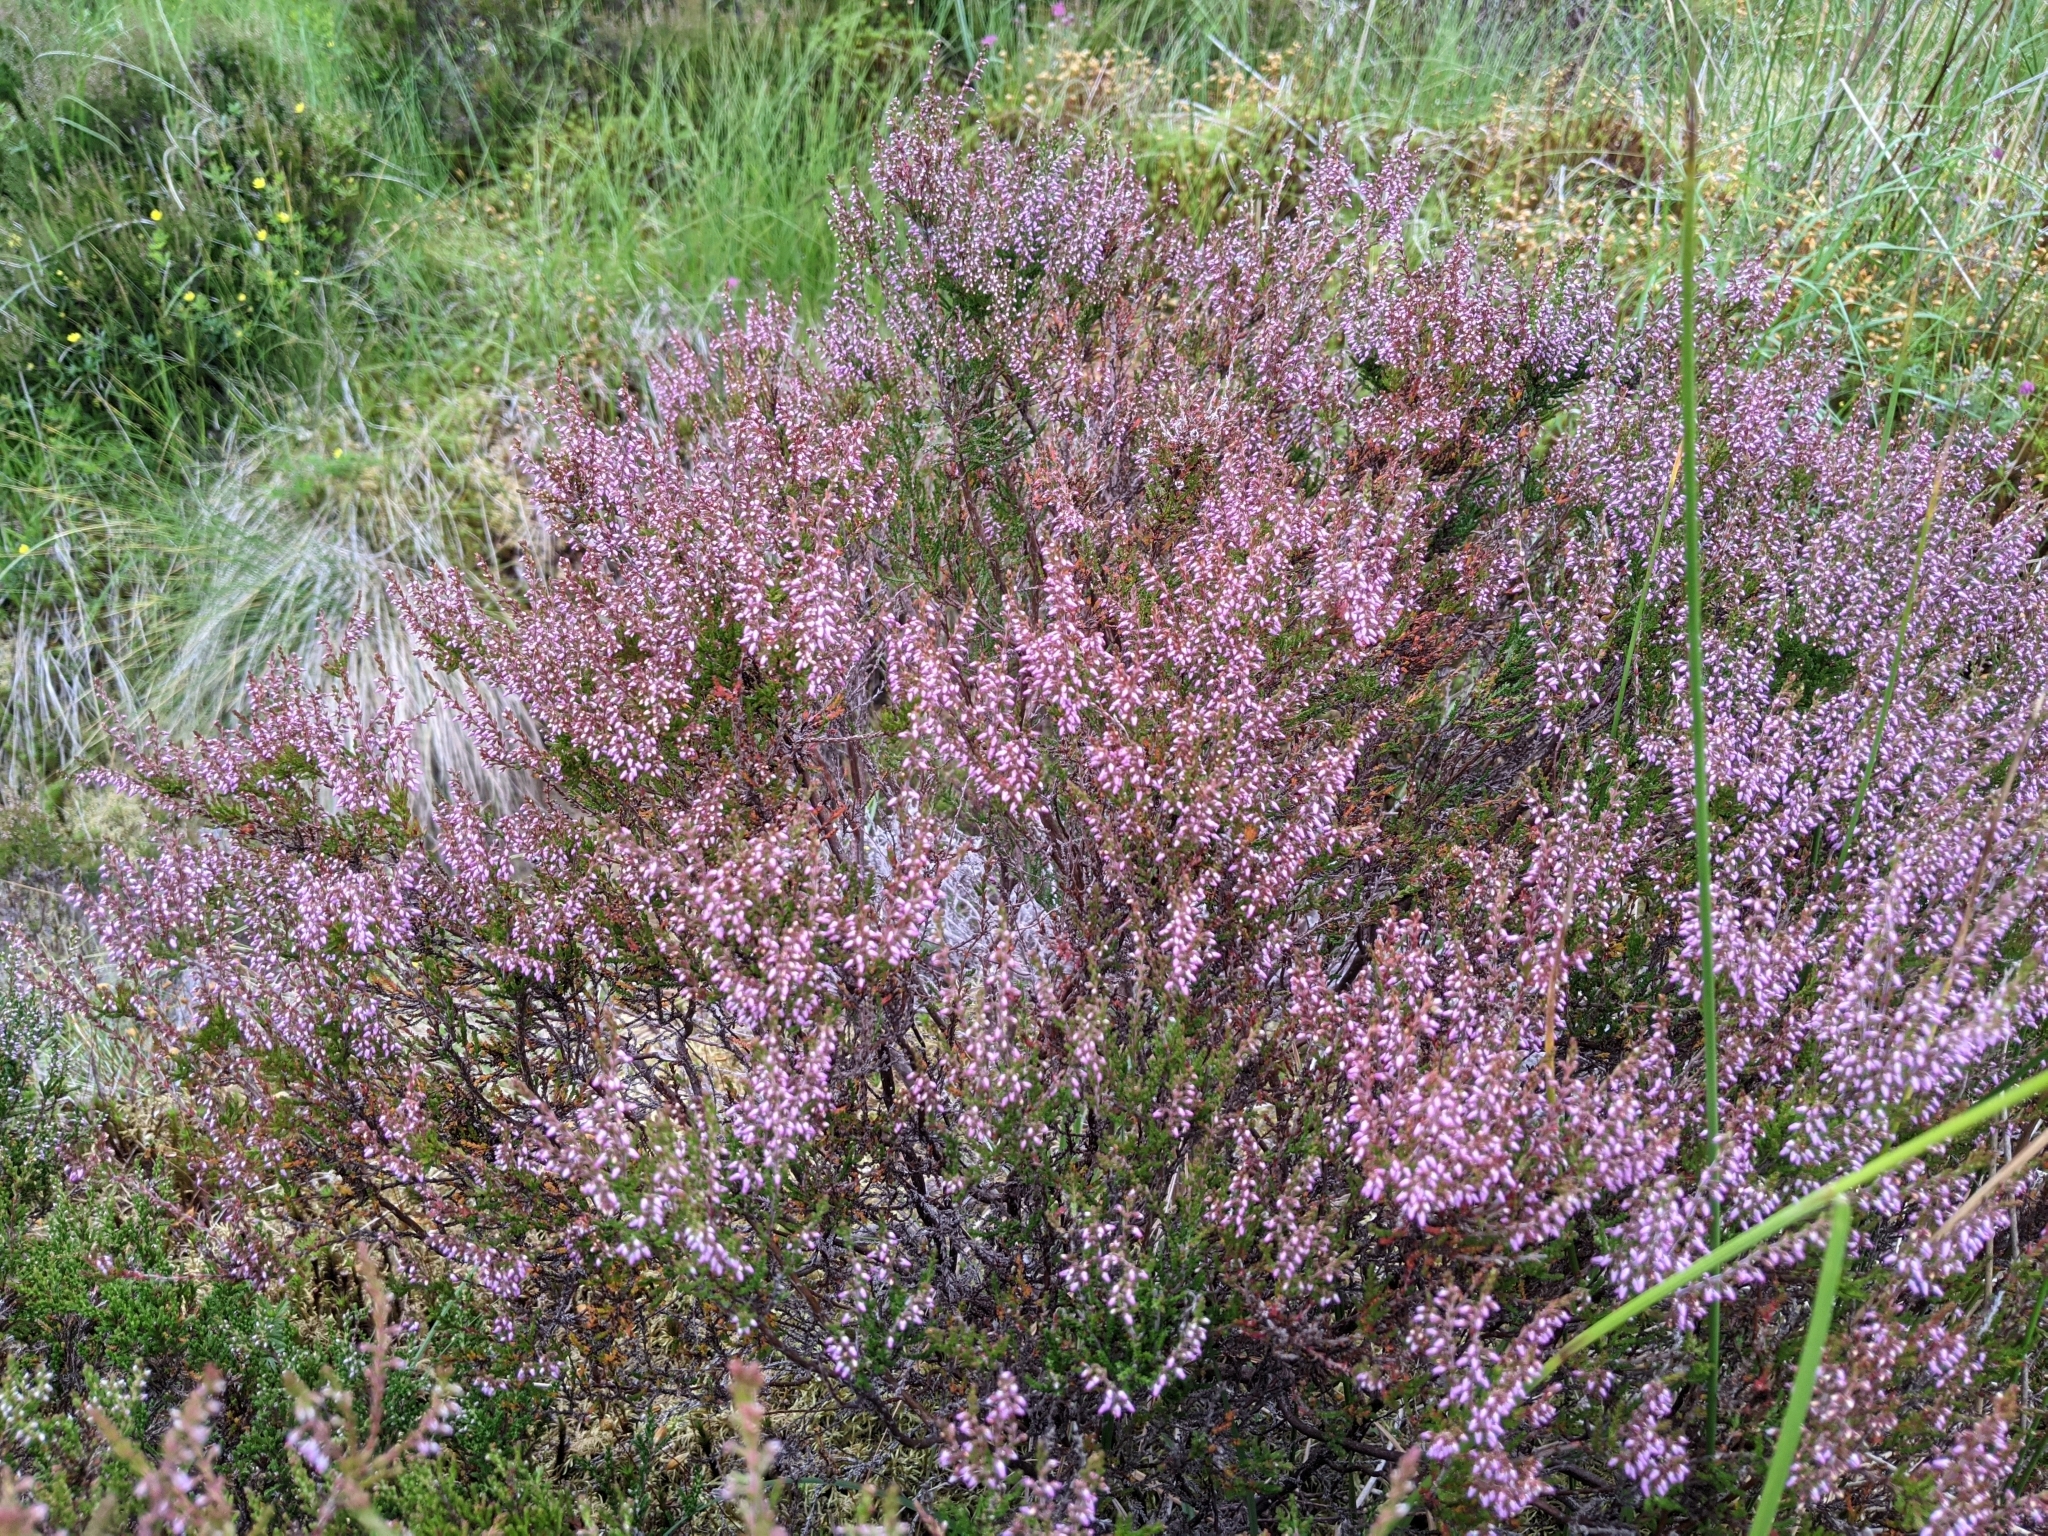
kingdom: Plantae
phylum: Tracheophyta
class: Magnoliopsida
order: Ericales
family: Ericaceae
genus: Calluna
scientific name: Calluna vulgaris
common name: Heather
